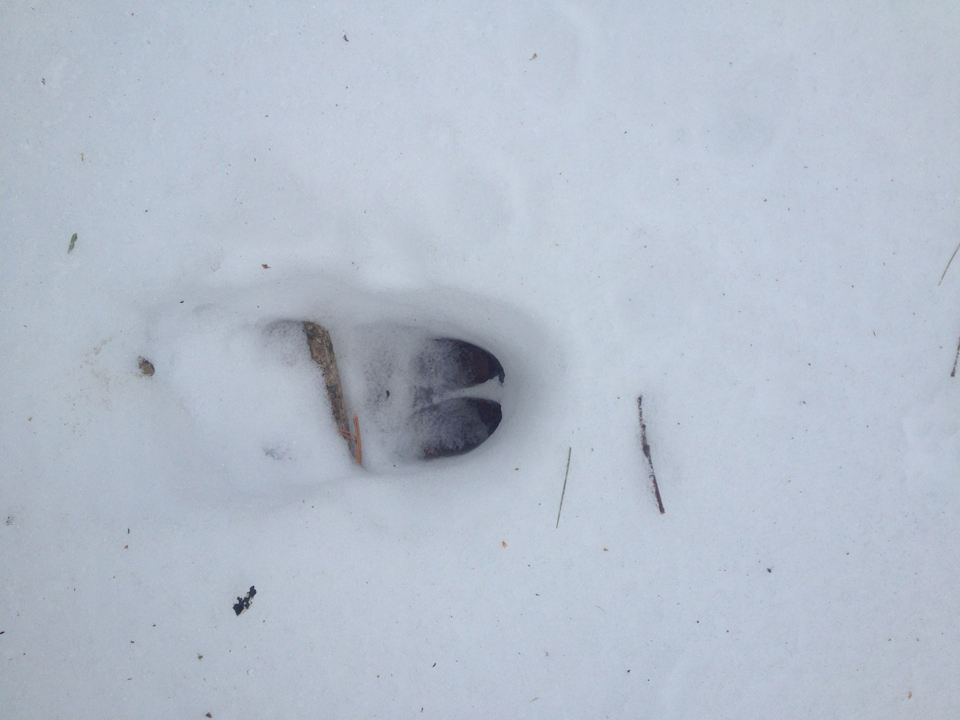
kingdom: Animalia
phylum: Chordata
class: Mammalia
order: Artiodactyla
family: Cervidae
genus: Odocoileus
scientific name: Odocoileus virginianus
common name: White-tailed deer
